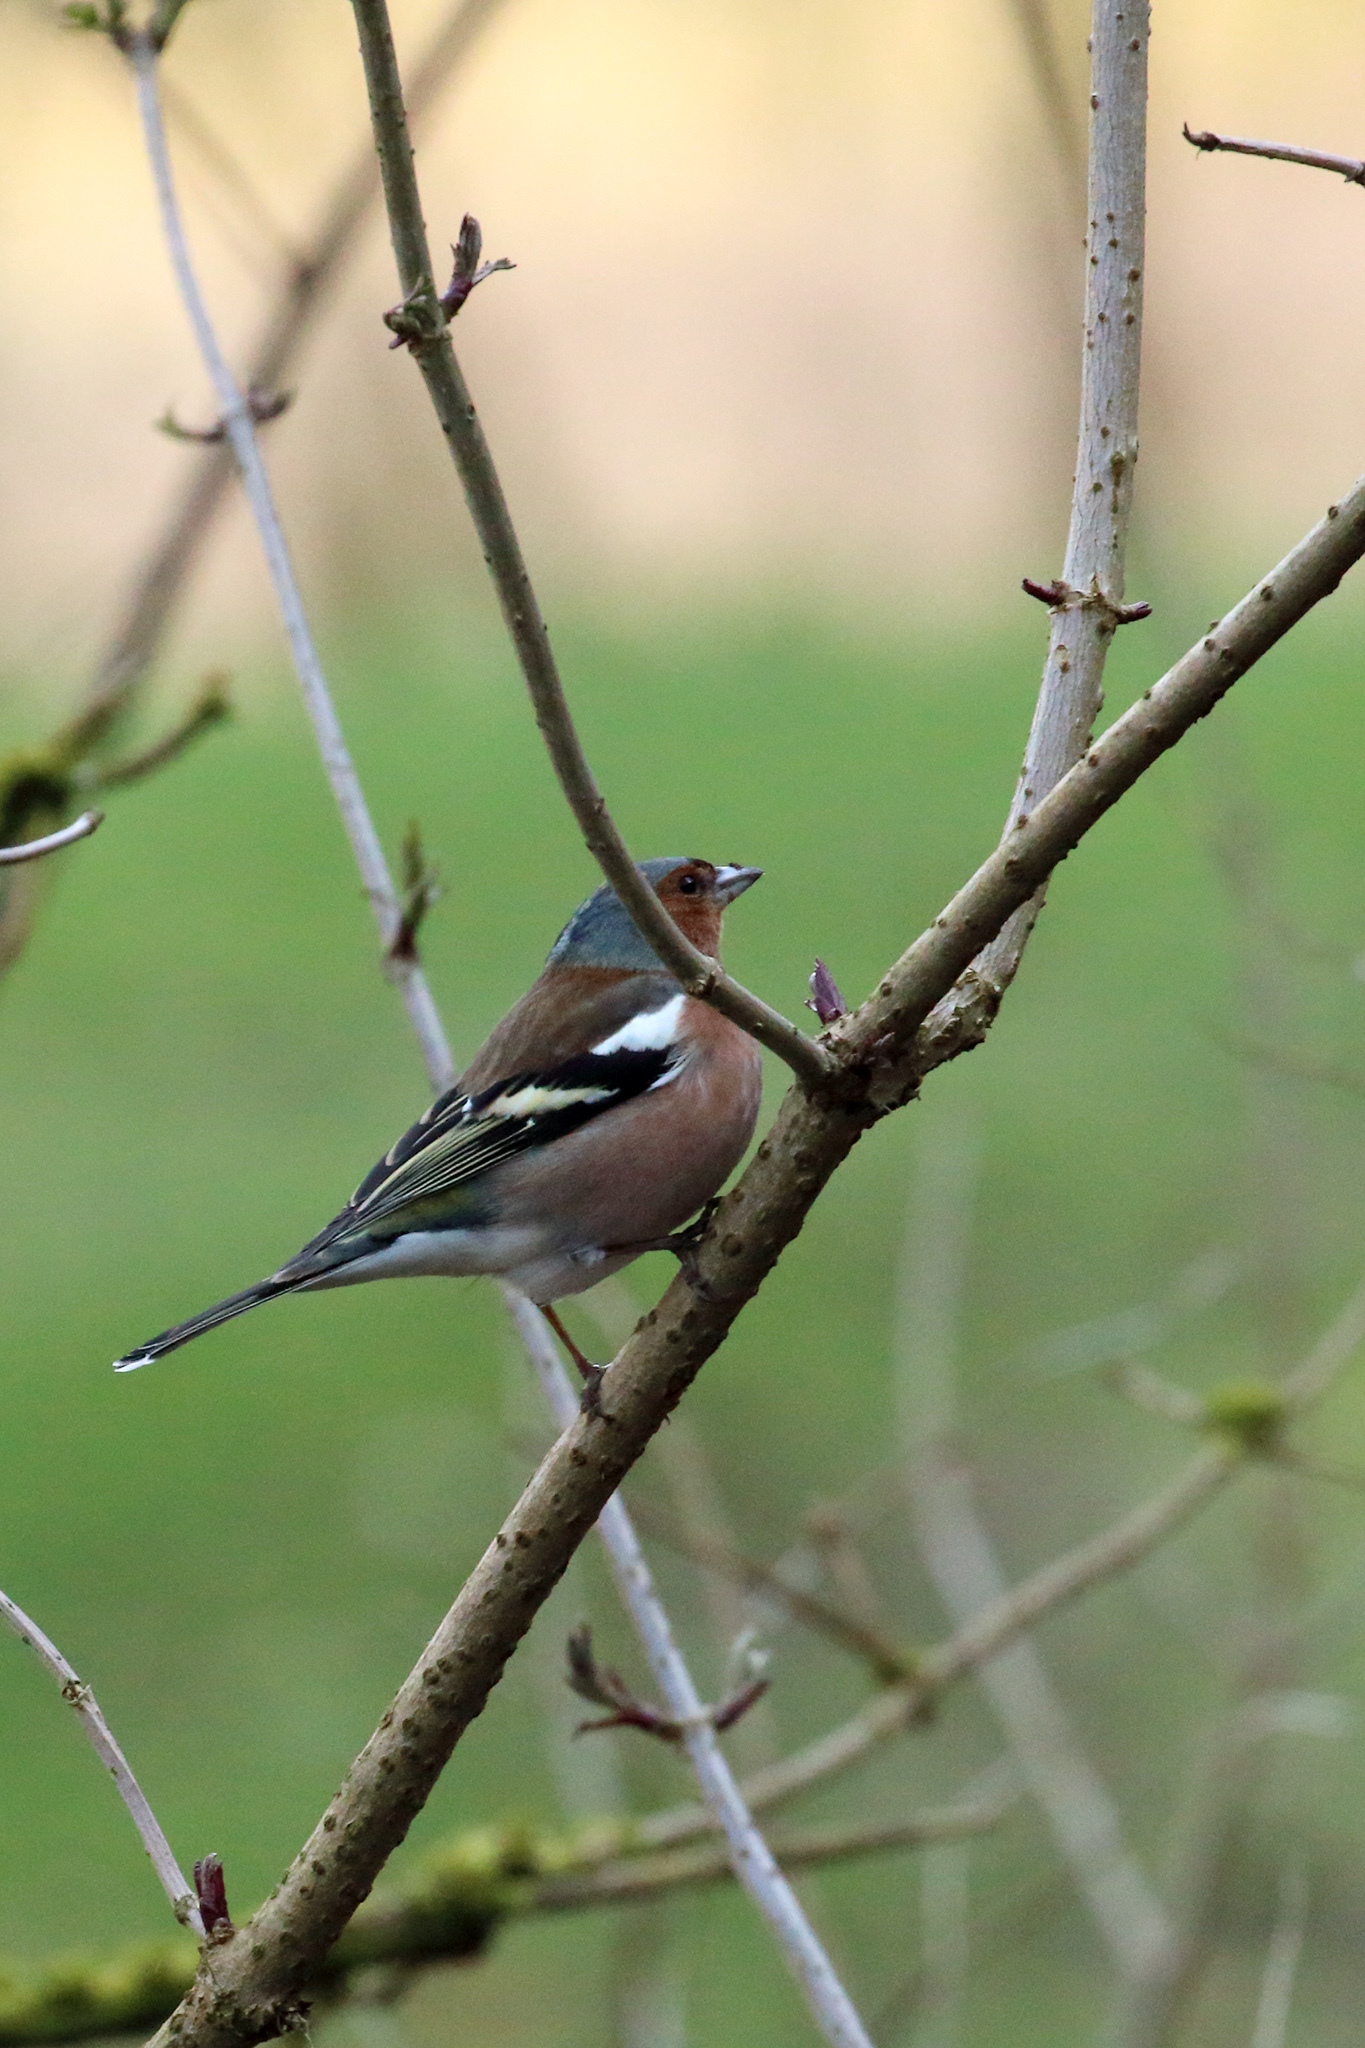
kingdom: Animalia
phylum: Chordata
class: Aves
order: Passeriformes
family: Fringillidae
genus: Fringilla
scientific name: Fringilla coelebs
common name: Common chaffinch
